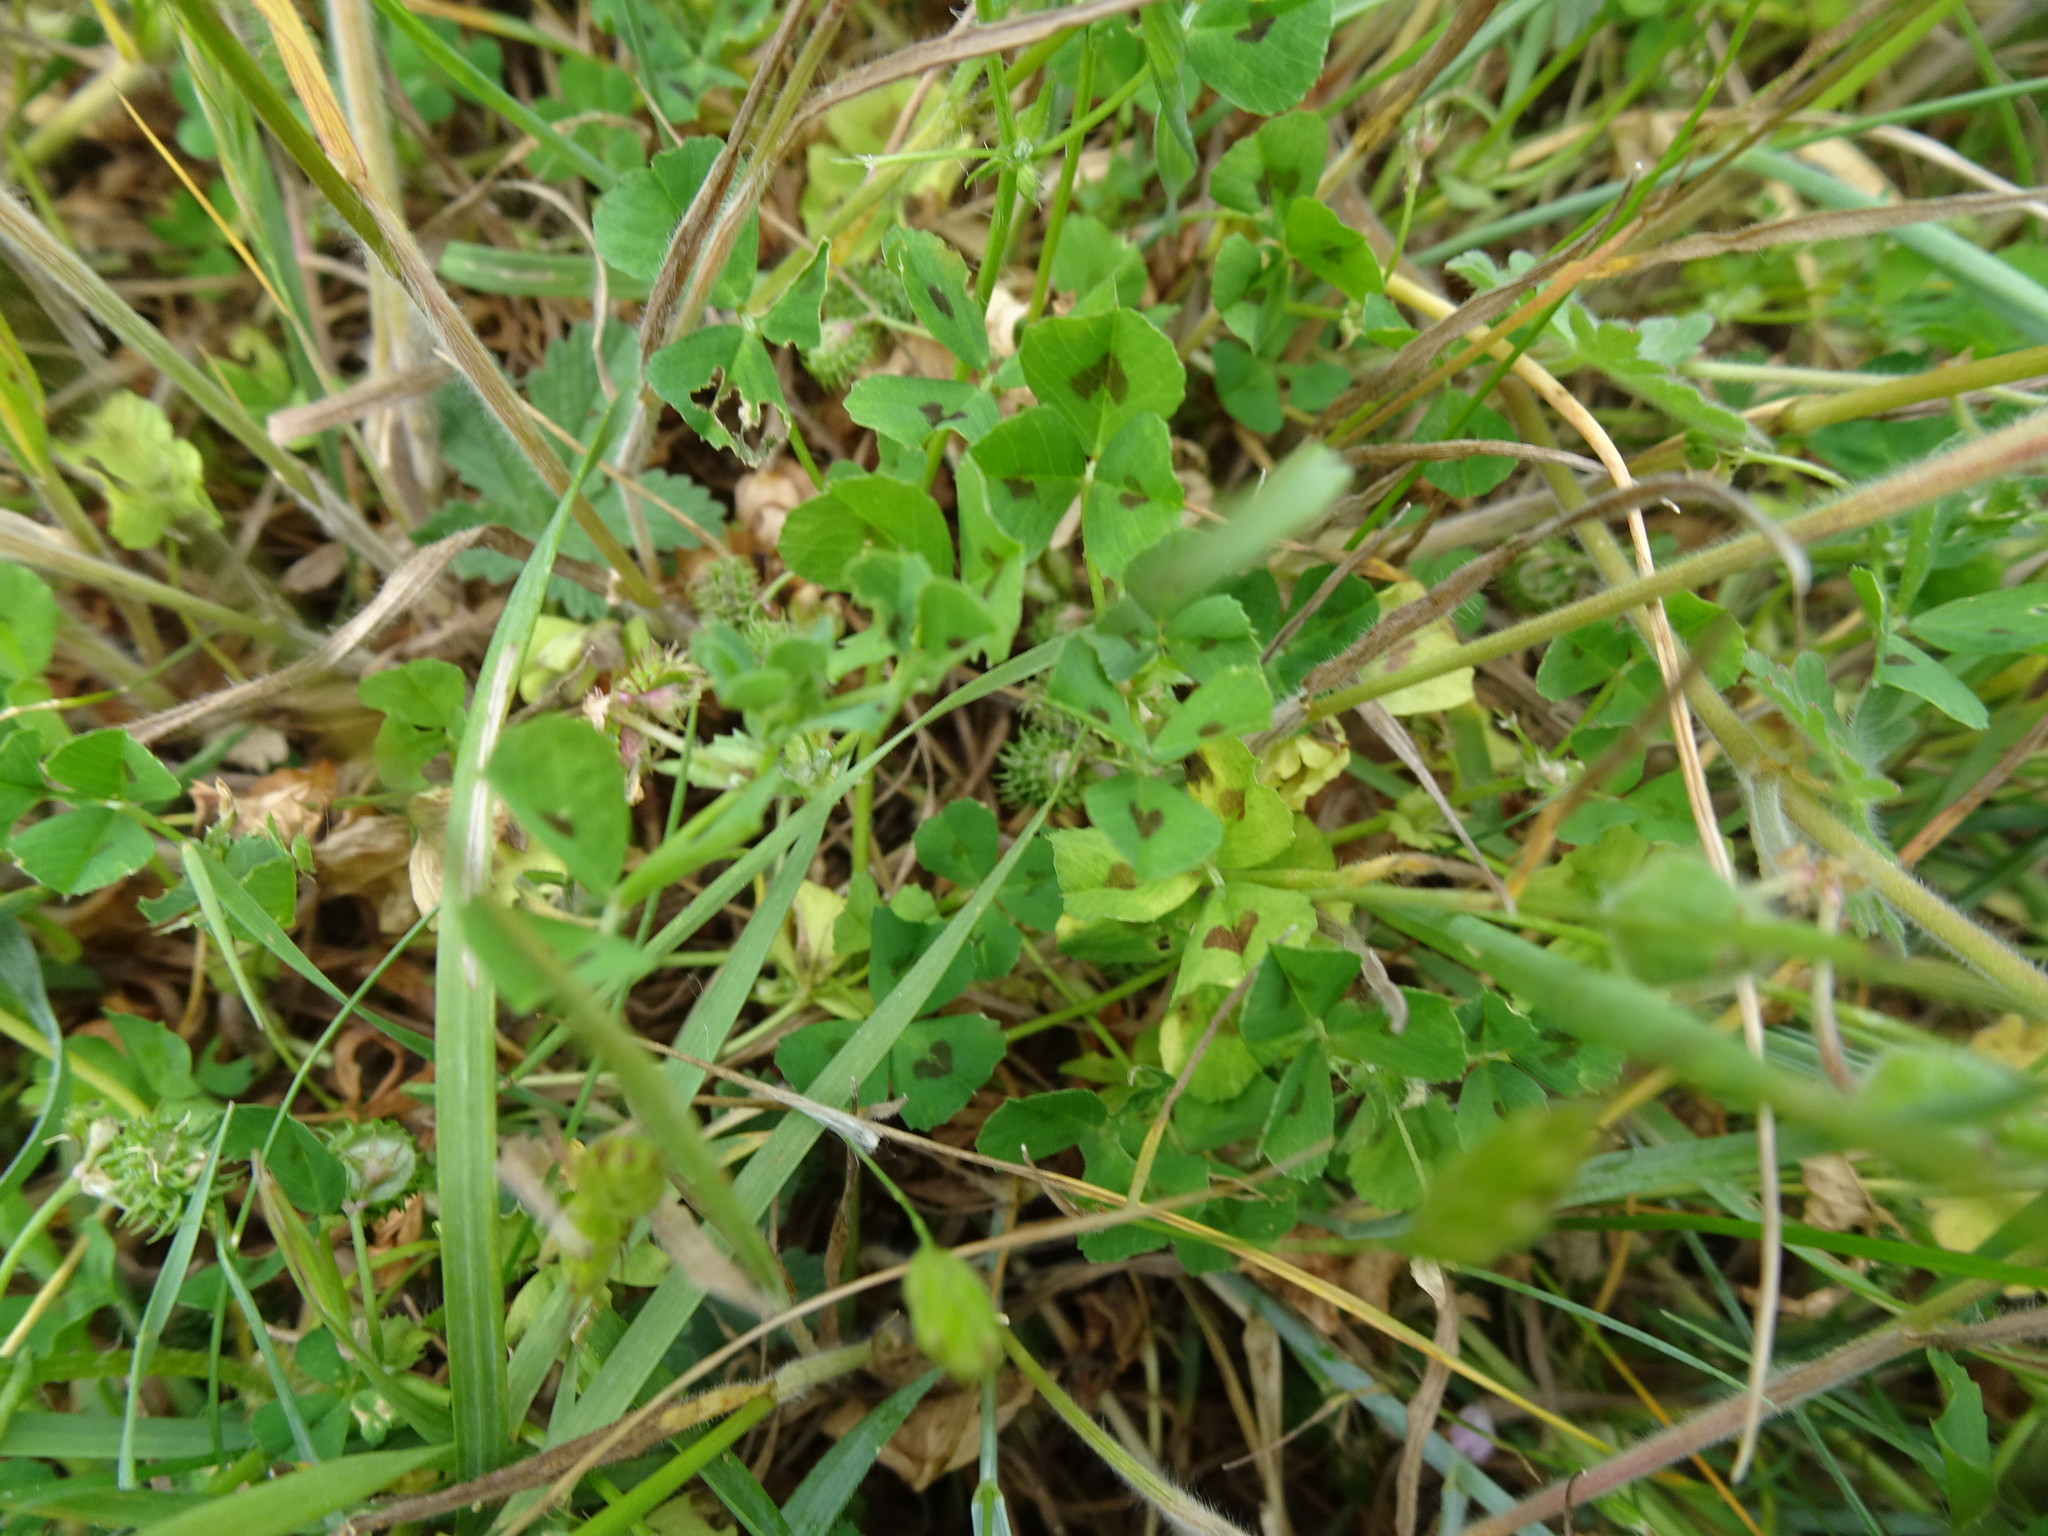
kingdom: Plantae
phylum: Tracheophyta
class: Magnoliopsida
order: Fabales
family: Fabaceae
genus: Medicago
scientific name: Medicago arabica
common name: Spotted medick
